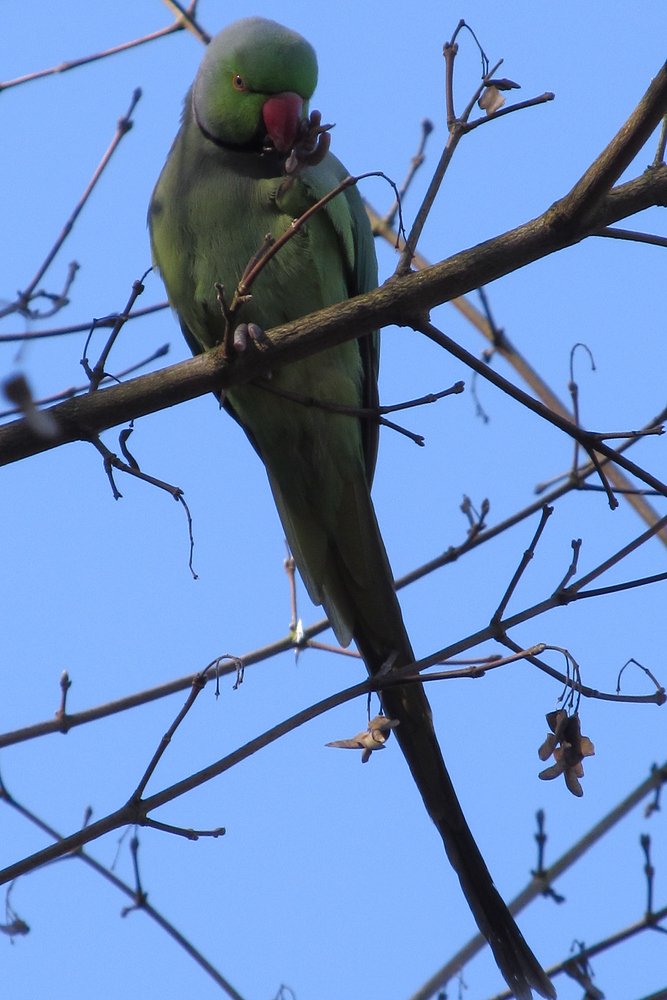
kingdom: Animalia
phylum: Chordata
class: Aves
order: Psittaciformes
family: Psittacidae
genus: Psittacula
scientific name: Psittacula krameri
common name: Rose-ringed parakeet
